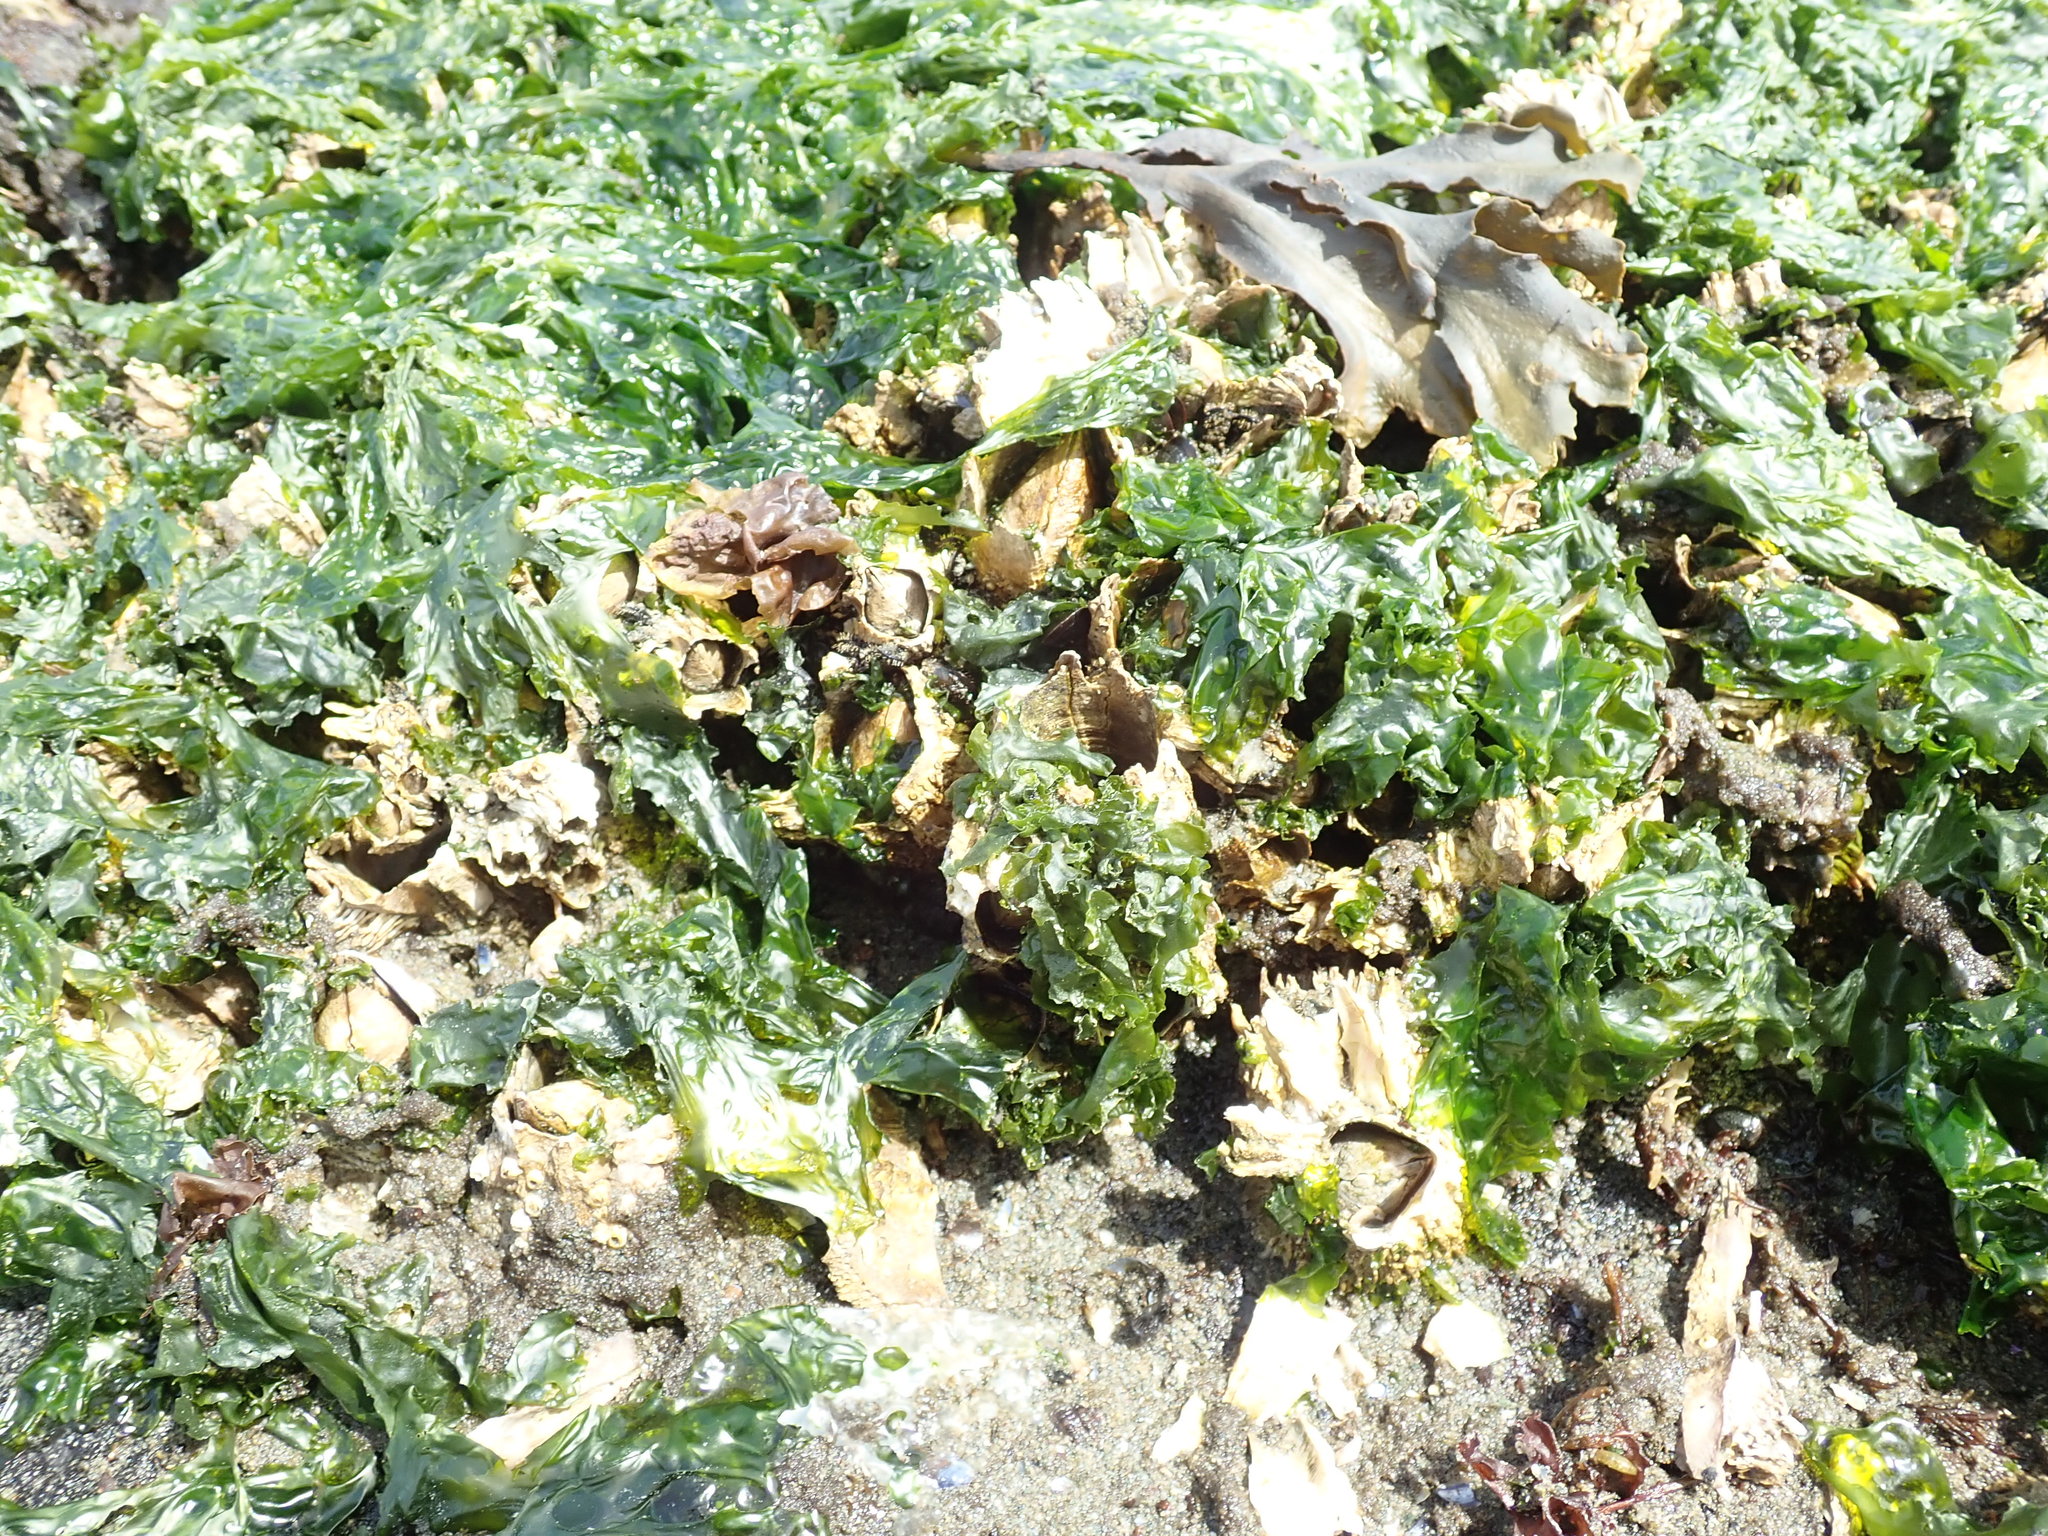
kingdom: Animalia
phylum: Arthropoda
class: Maxillopoda
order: Sessilia
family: Archaeobalanidae
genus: Semibalanus
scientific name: Semibalanus cariosus
